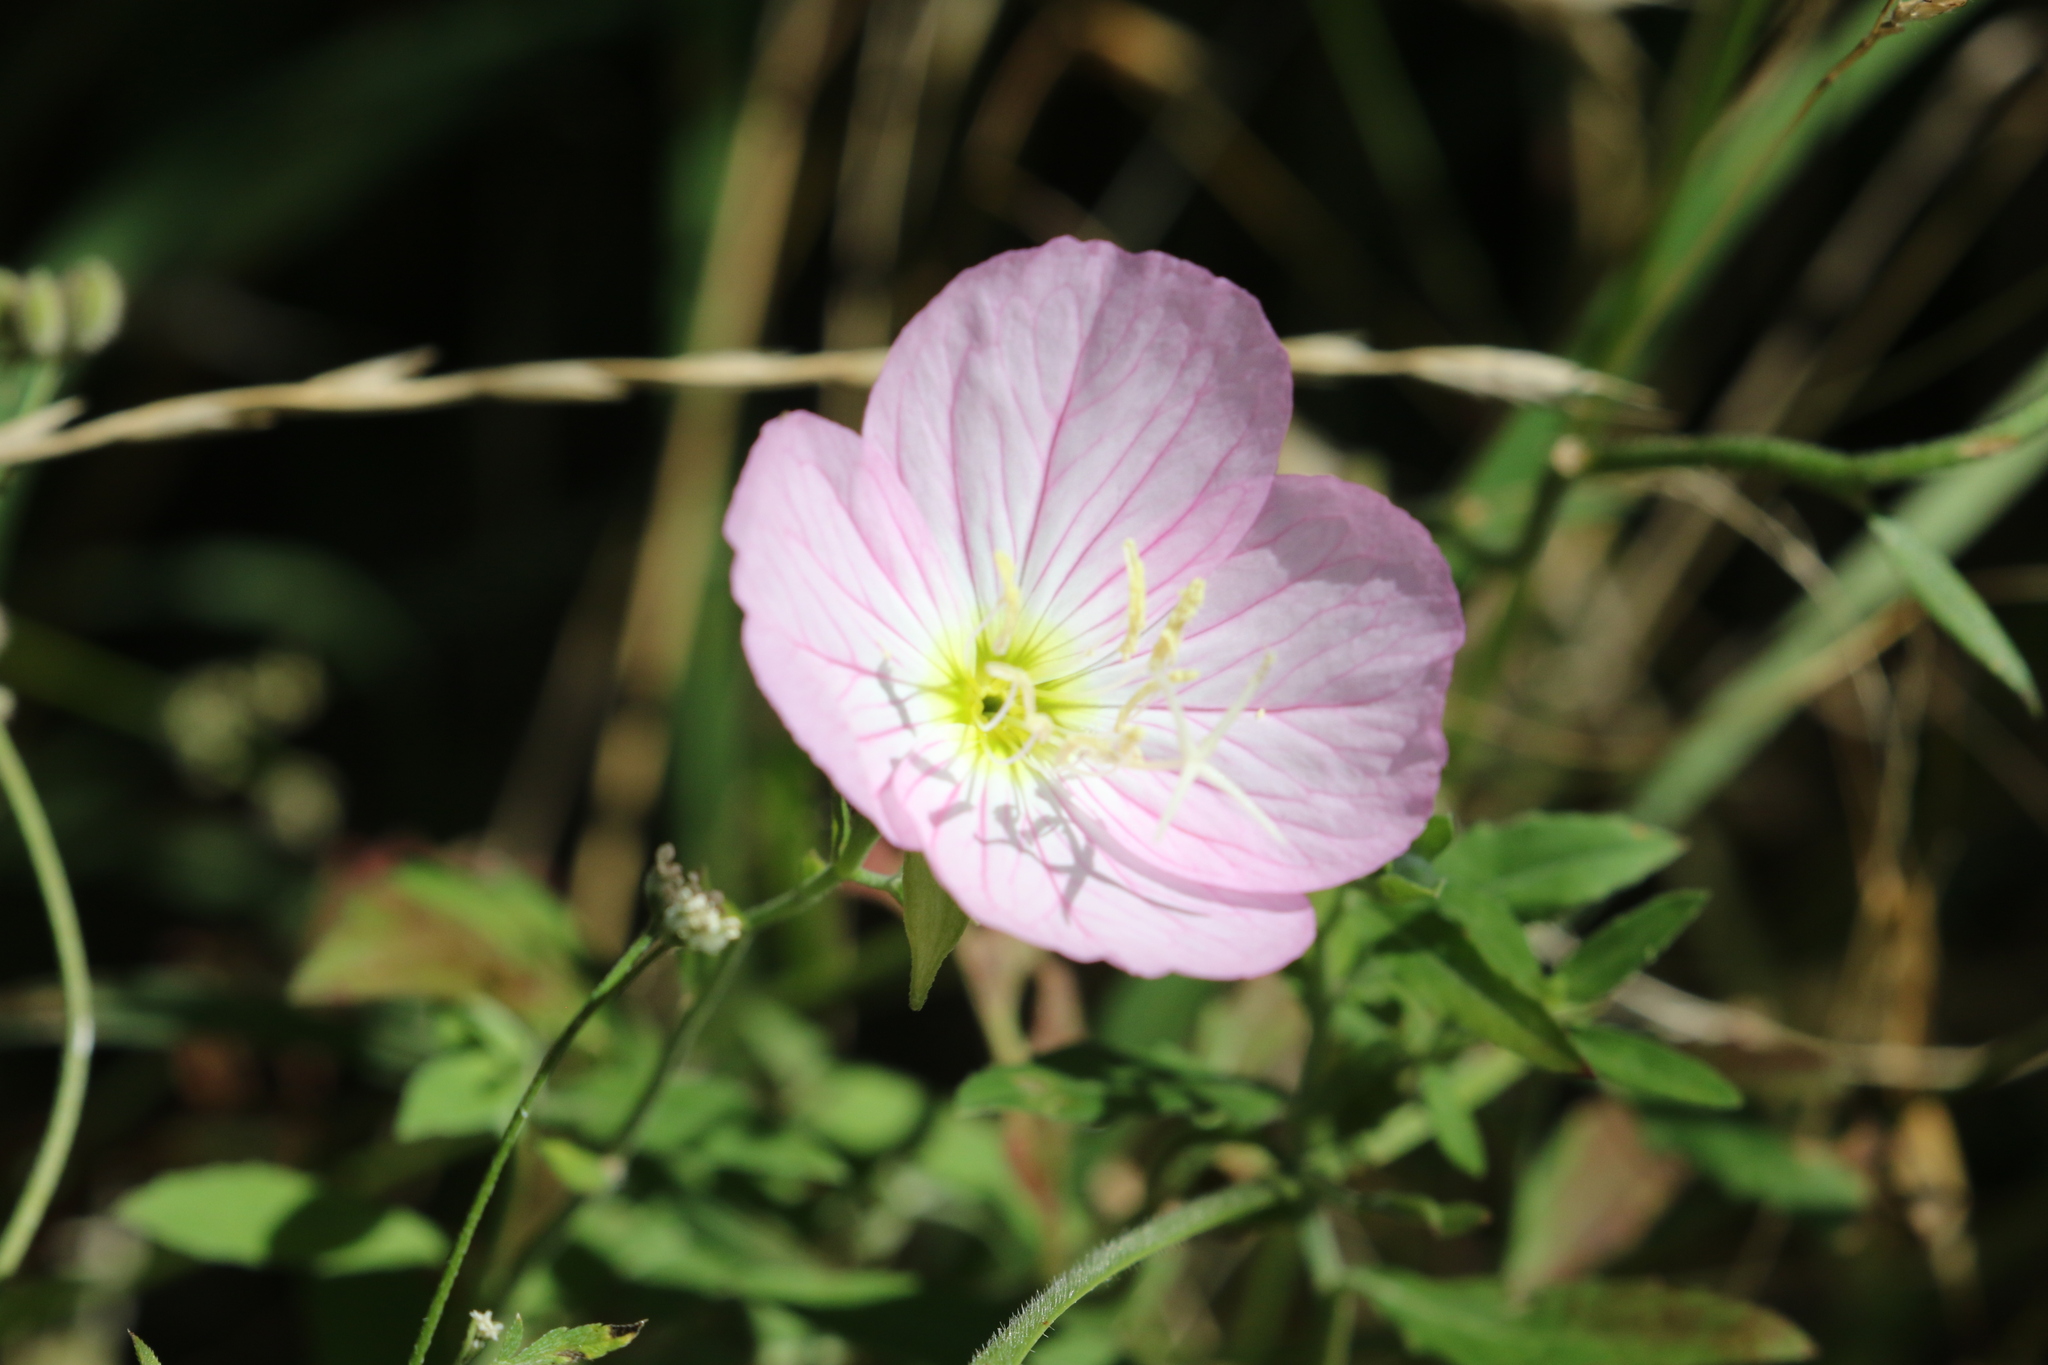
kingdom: Plantae
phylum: Tracheophyta
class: Magnoliopsida
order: Myrtales
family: Onagraceae
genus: Oenothera
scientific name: Oenothera speciosa
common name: White evening-primrose
